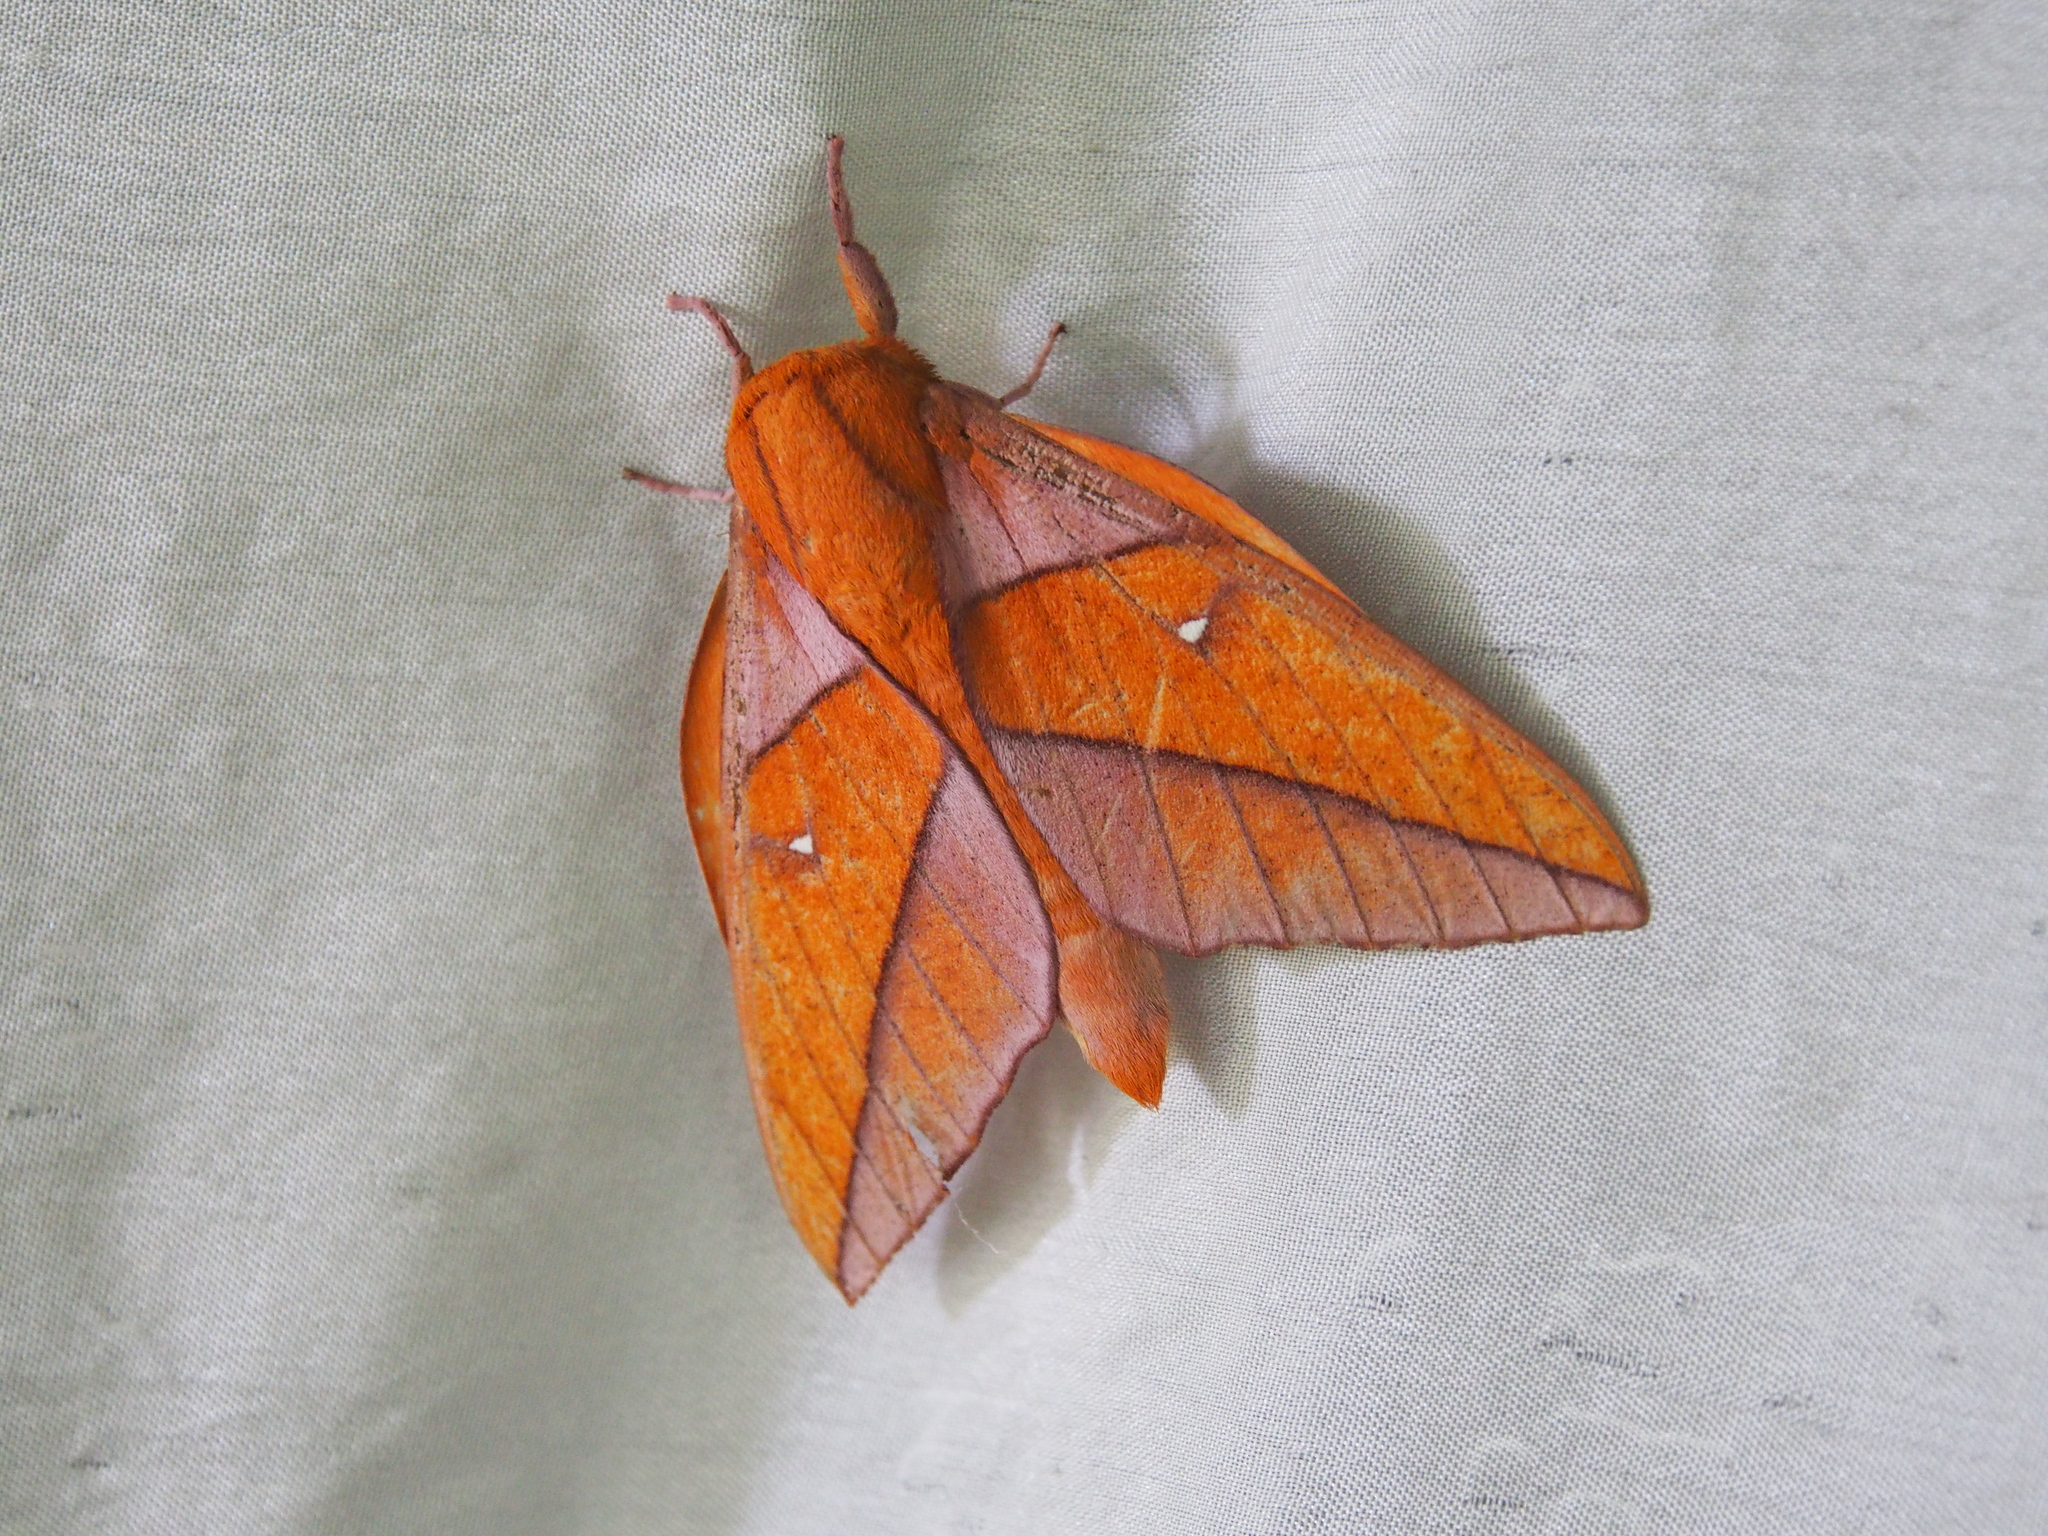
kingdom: Animalia
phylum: Arthropoda
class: Insecta
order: Lepidoptera
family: Saturniidae
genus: Adeloneivaia
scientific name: Adeloneivaia jason
